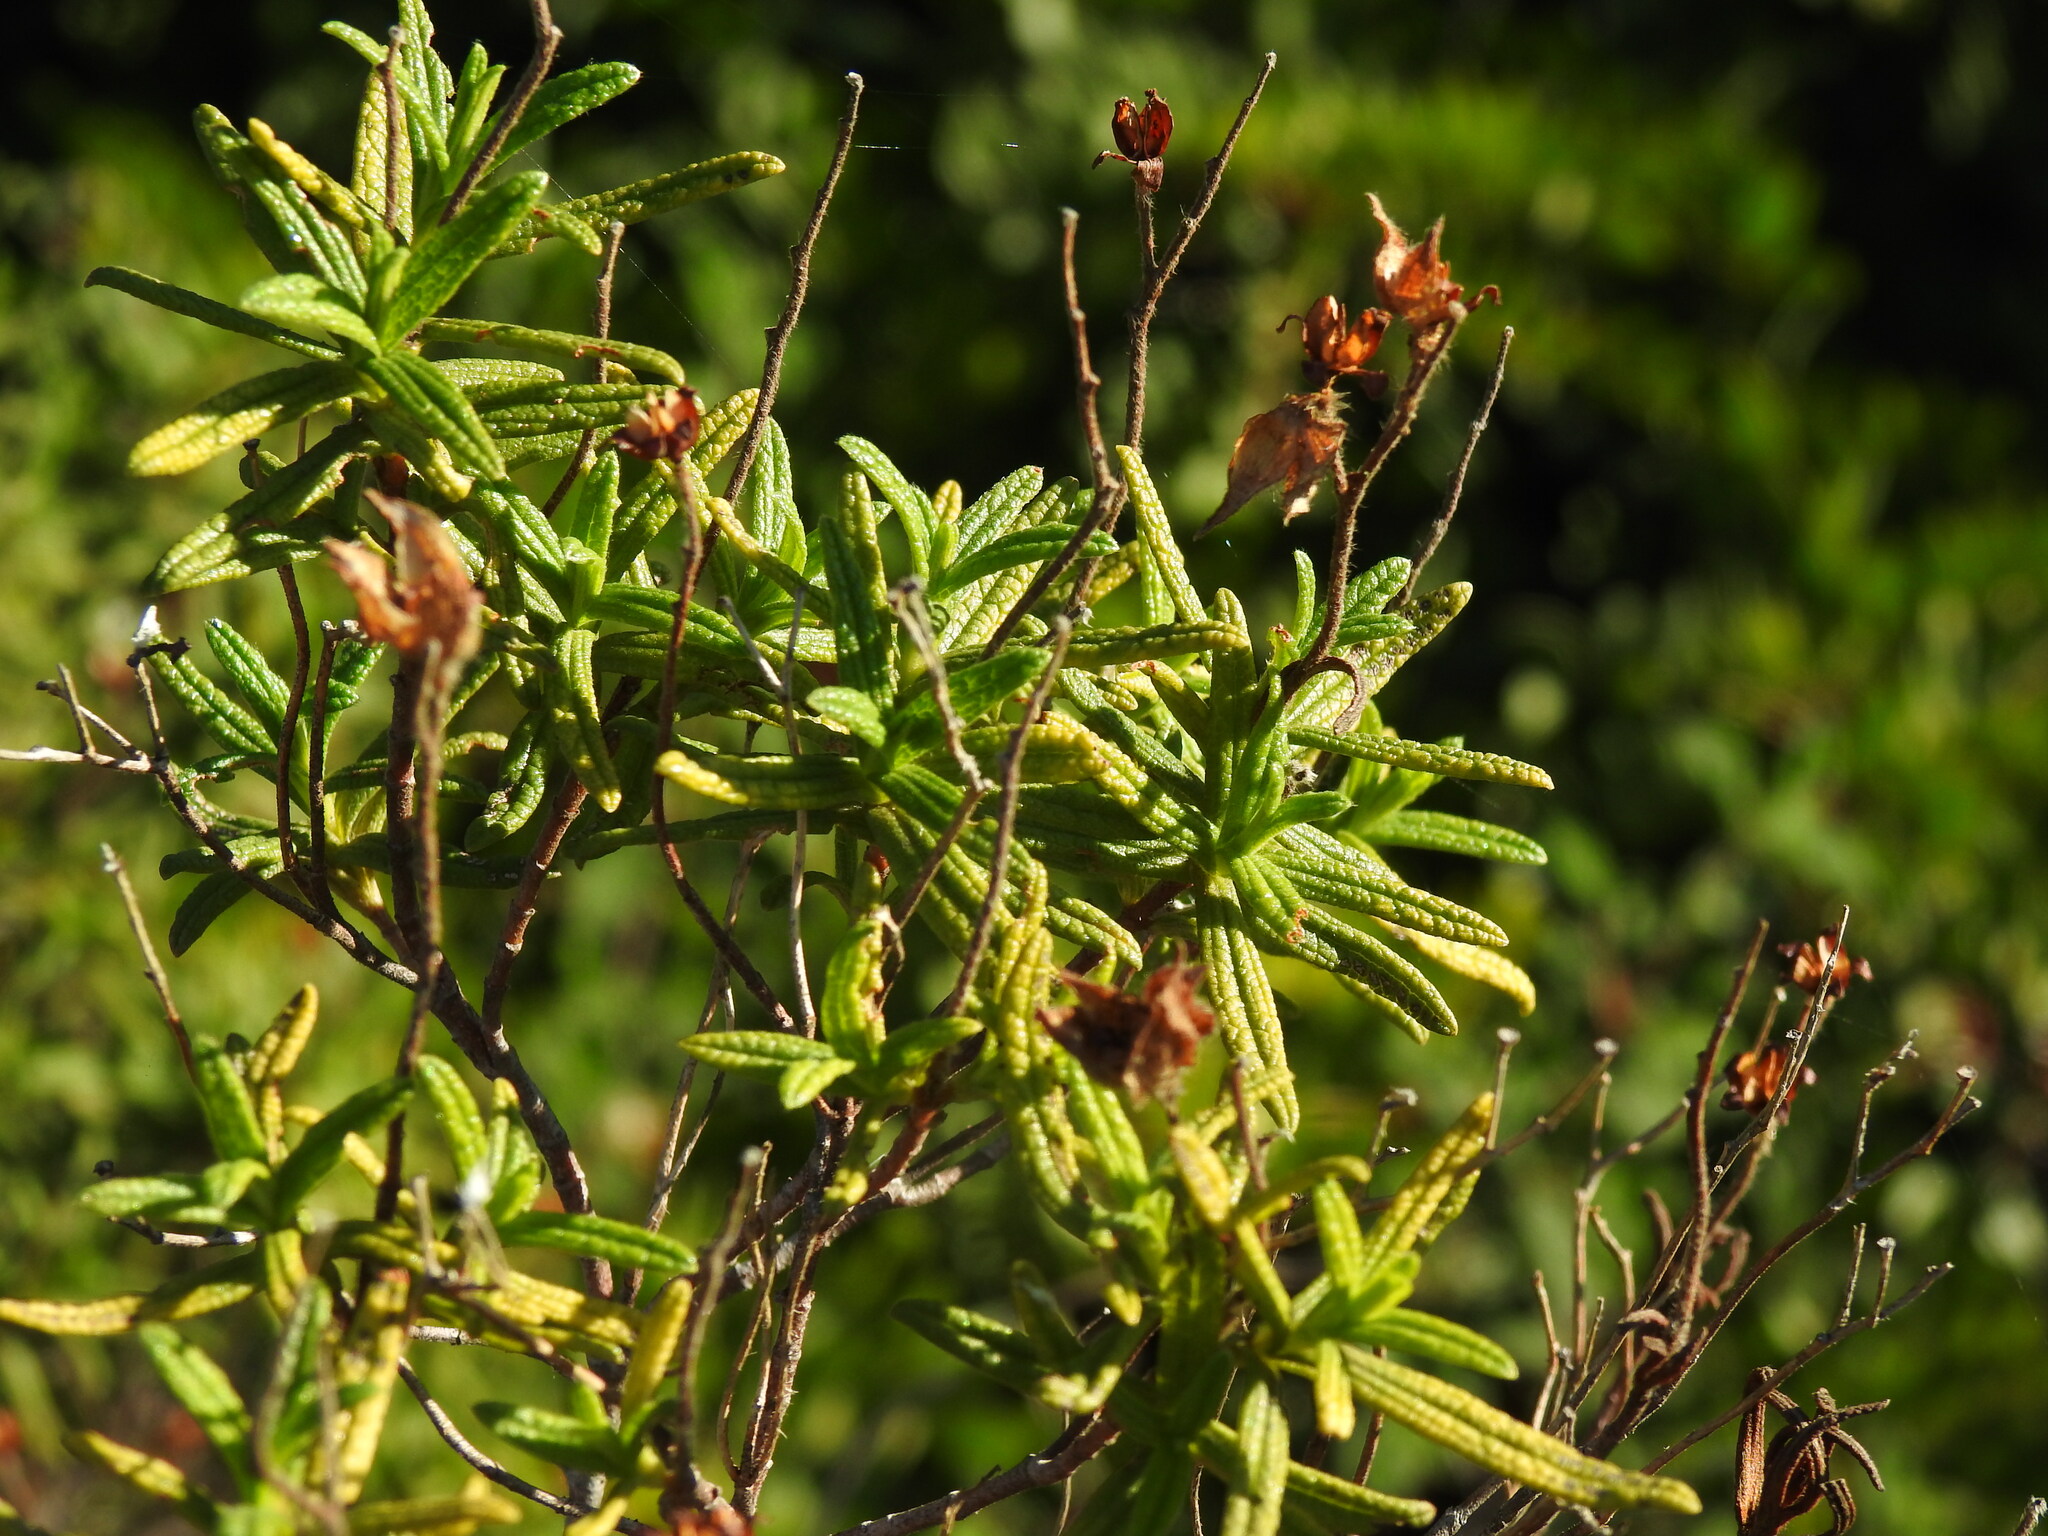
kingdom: Plantae
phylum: Tracheophyta
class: Magnoliopsida
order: Malvales
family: Cistaceae
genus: Cistus
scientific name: Cistus monspeliensis
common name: Montpelier cistus
